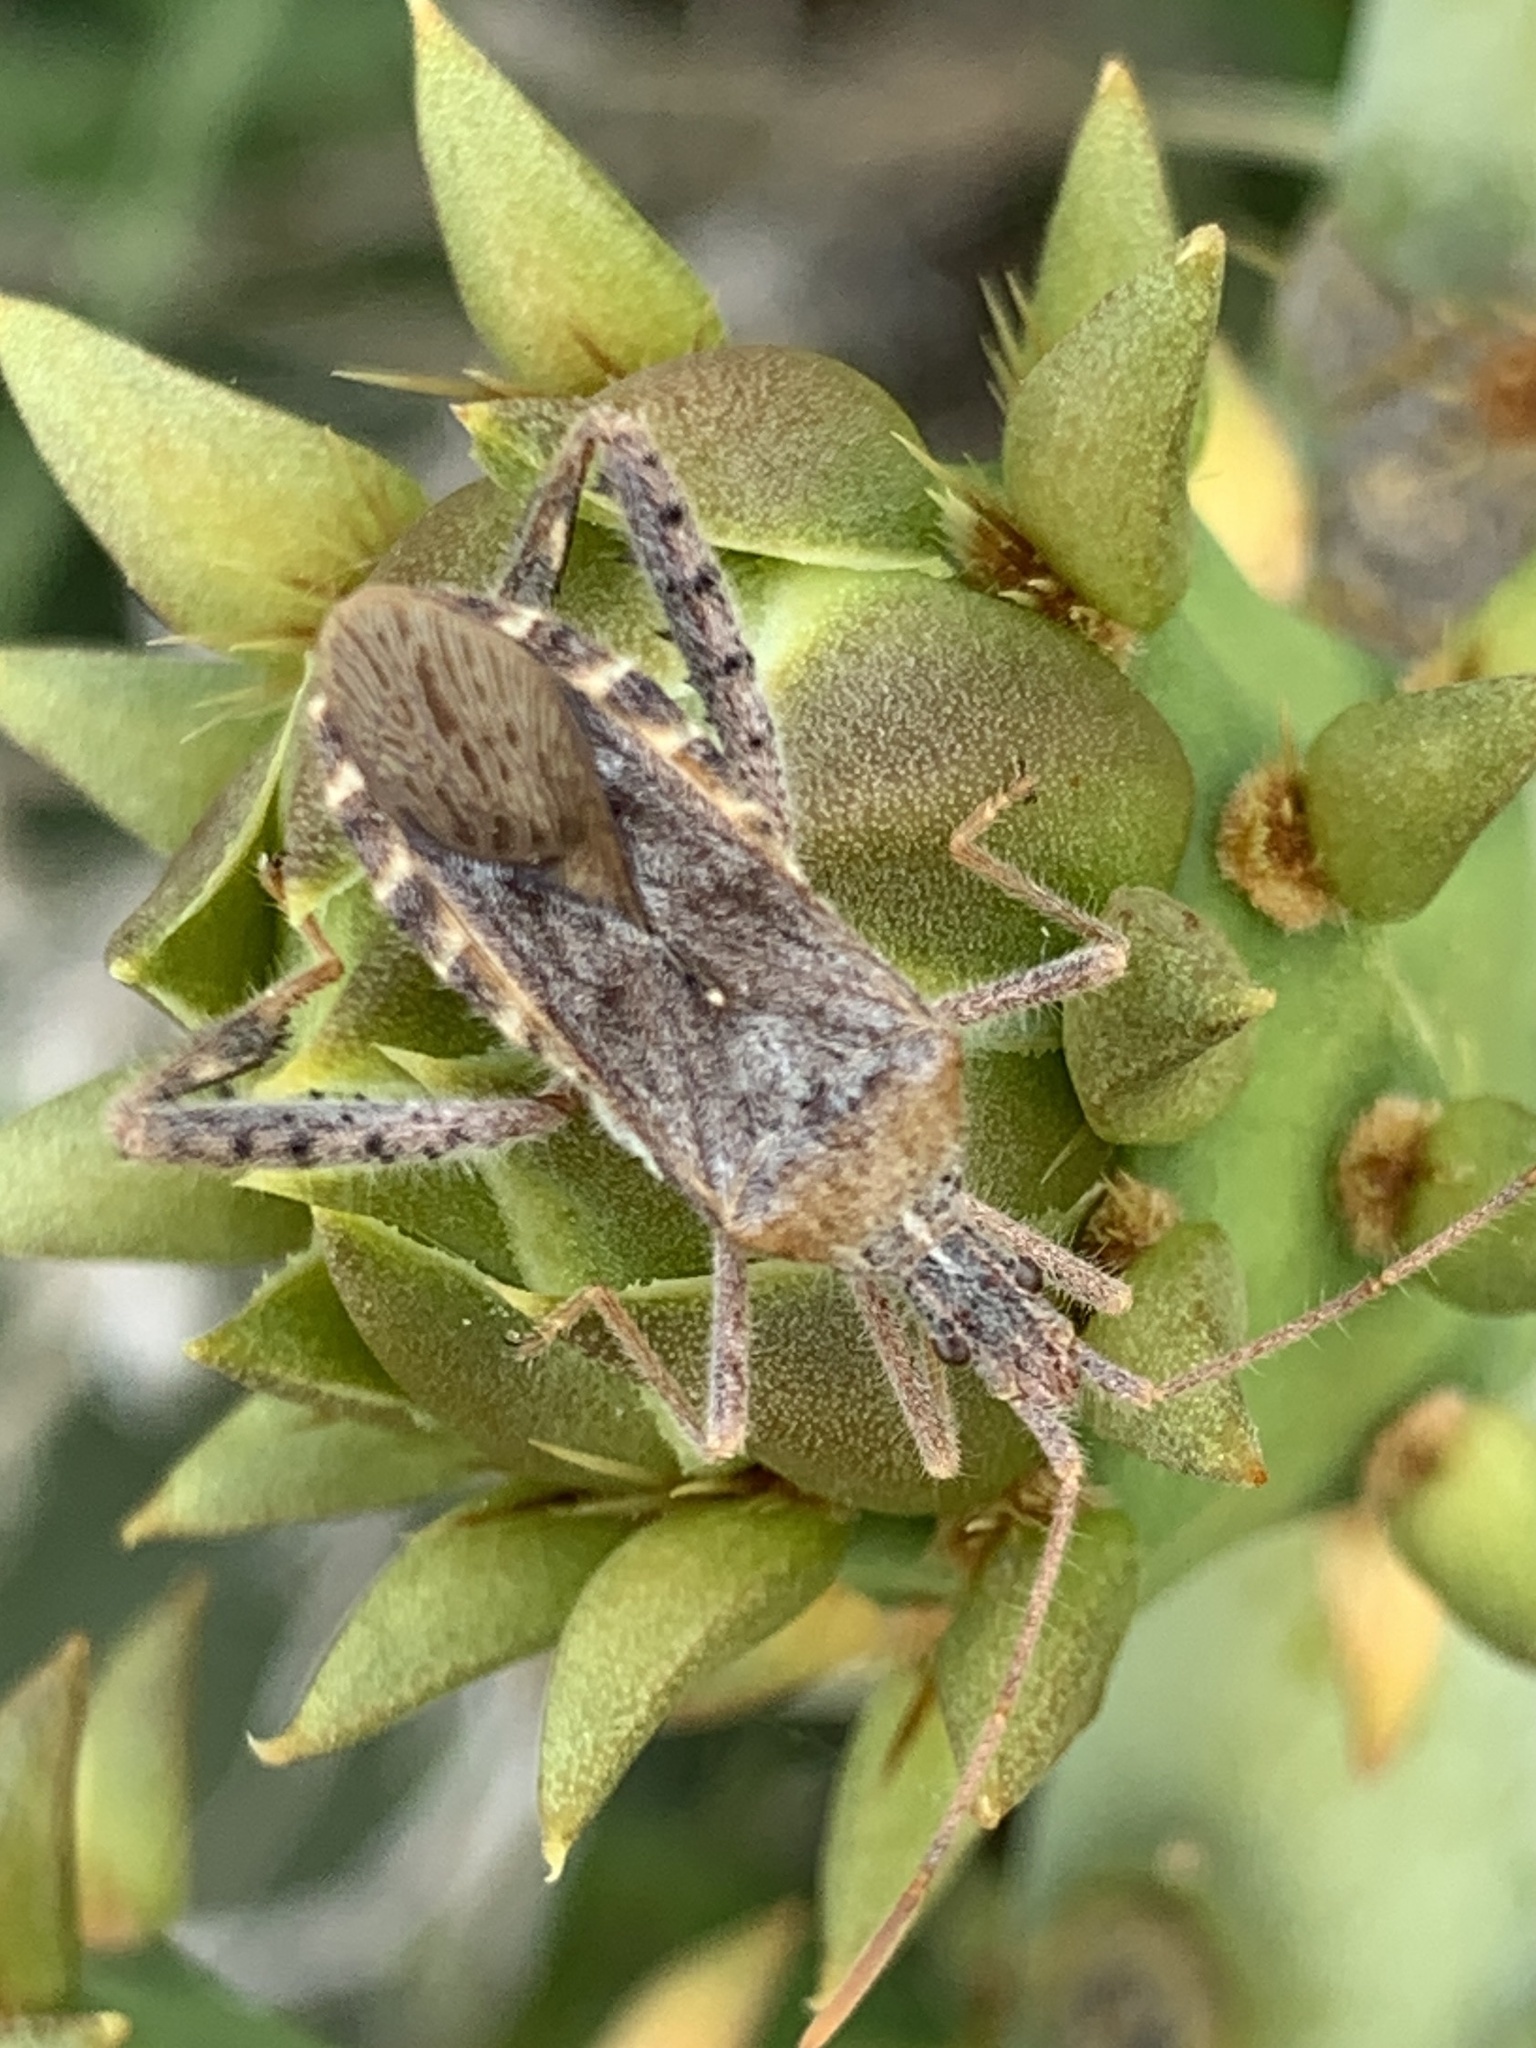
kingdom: Animalia
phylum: Arthropoda
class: Insecta
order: Hemiptera
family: Coreidae
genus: Narnia
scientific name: Narnia femorata
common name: Leaf-footed cactus bug
